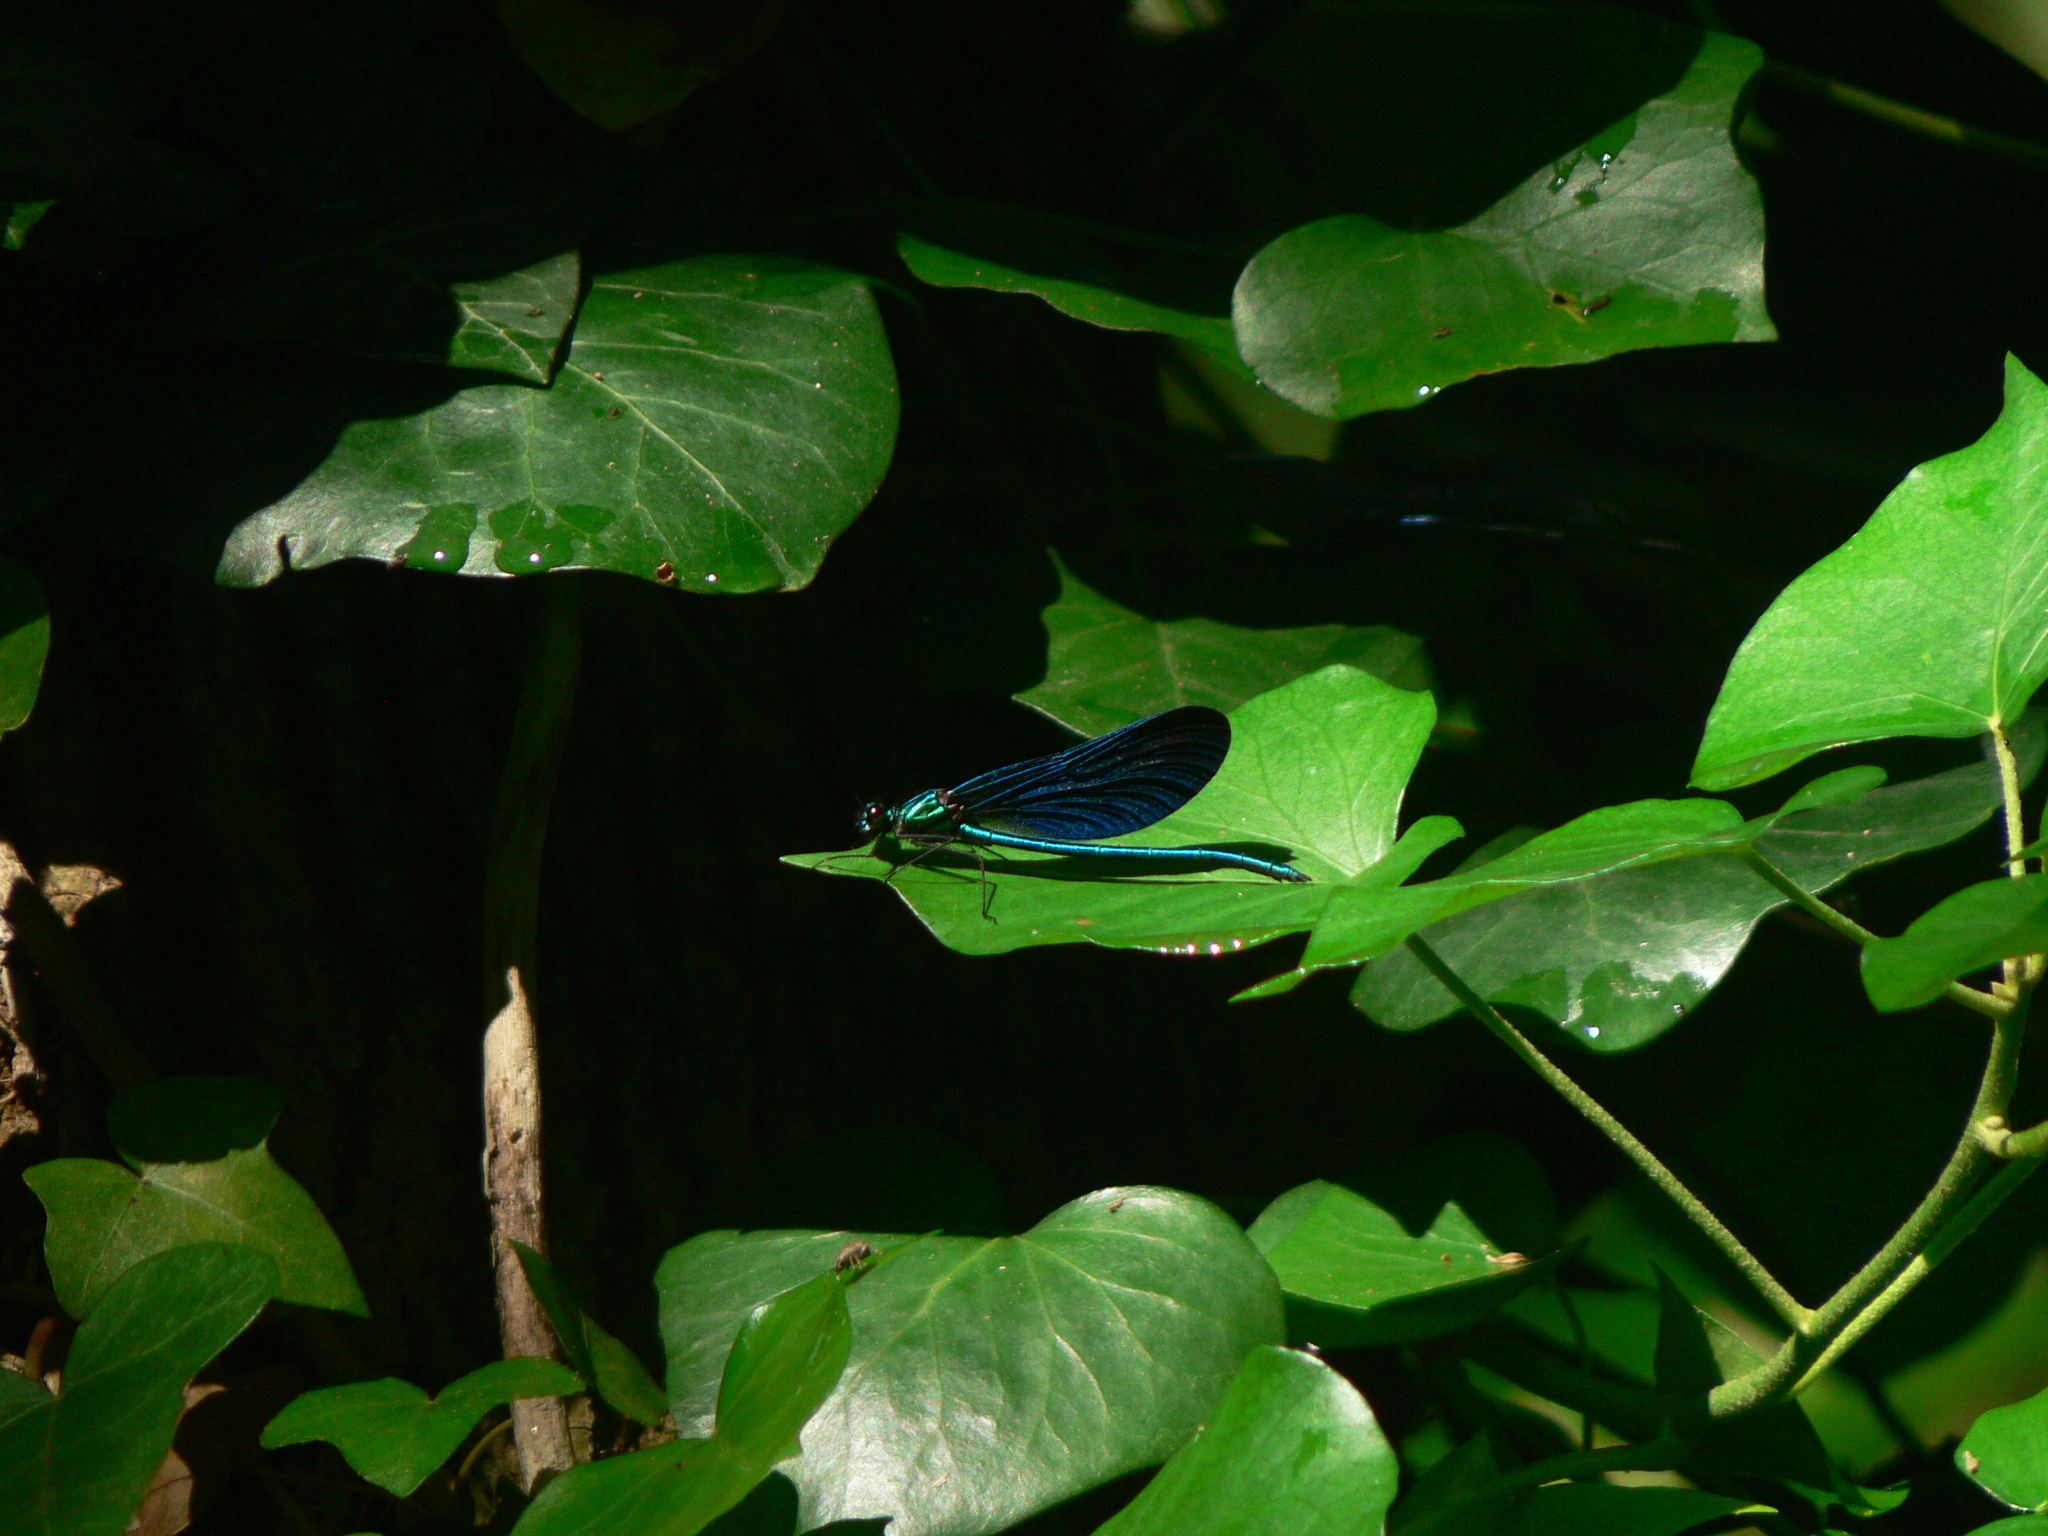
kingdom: Animalia
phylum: Arthropoda
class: Insecta
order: Odonata
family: Calopterygidae
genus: Calopteryx
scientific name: Calopteryx virgo
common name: Beautiful demoiselle
